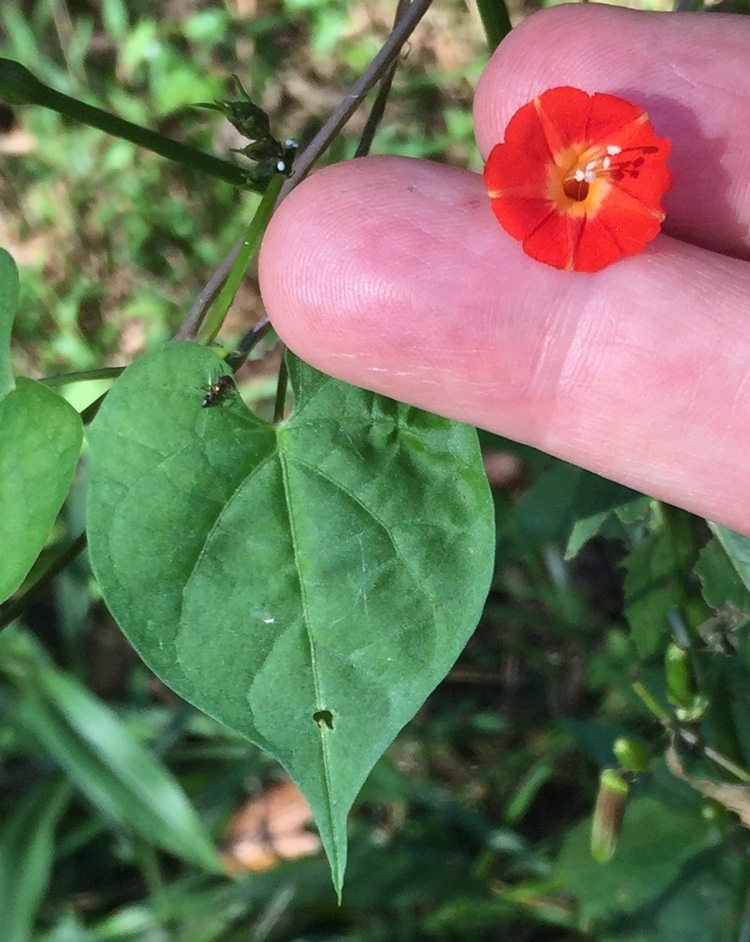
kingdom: Plantae
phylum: Tracheophyta
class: Magnoliopsida
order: Solanales
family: Convolvulaceae
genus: Ipomoea
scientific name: Ipomoea coccinea
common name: Red morning-glory
